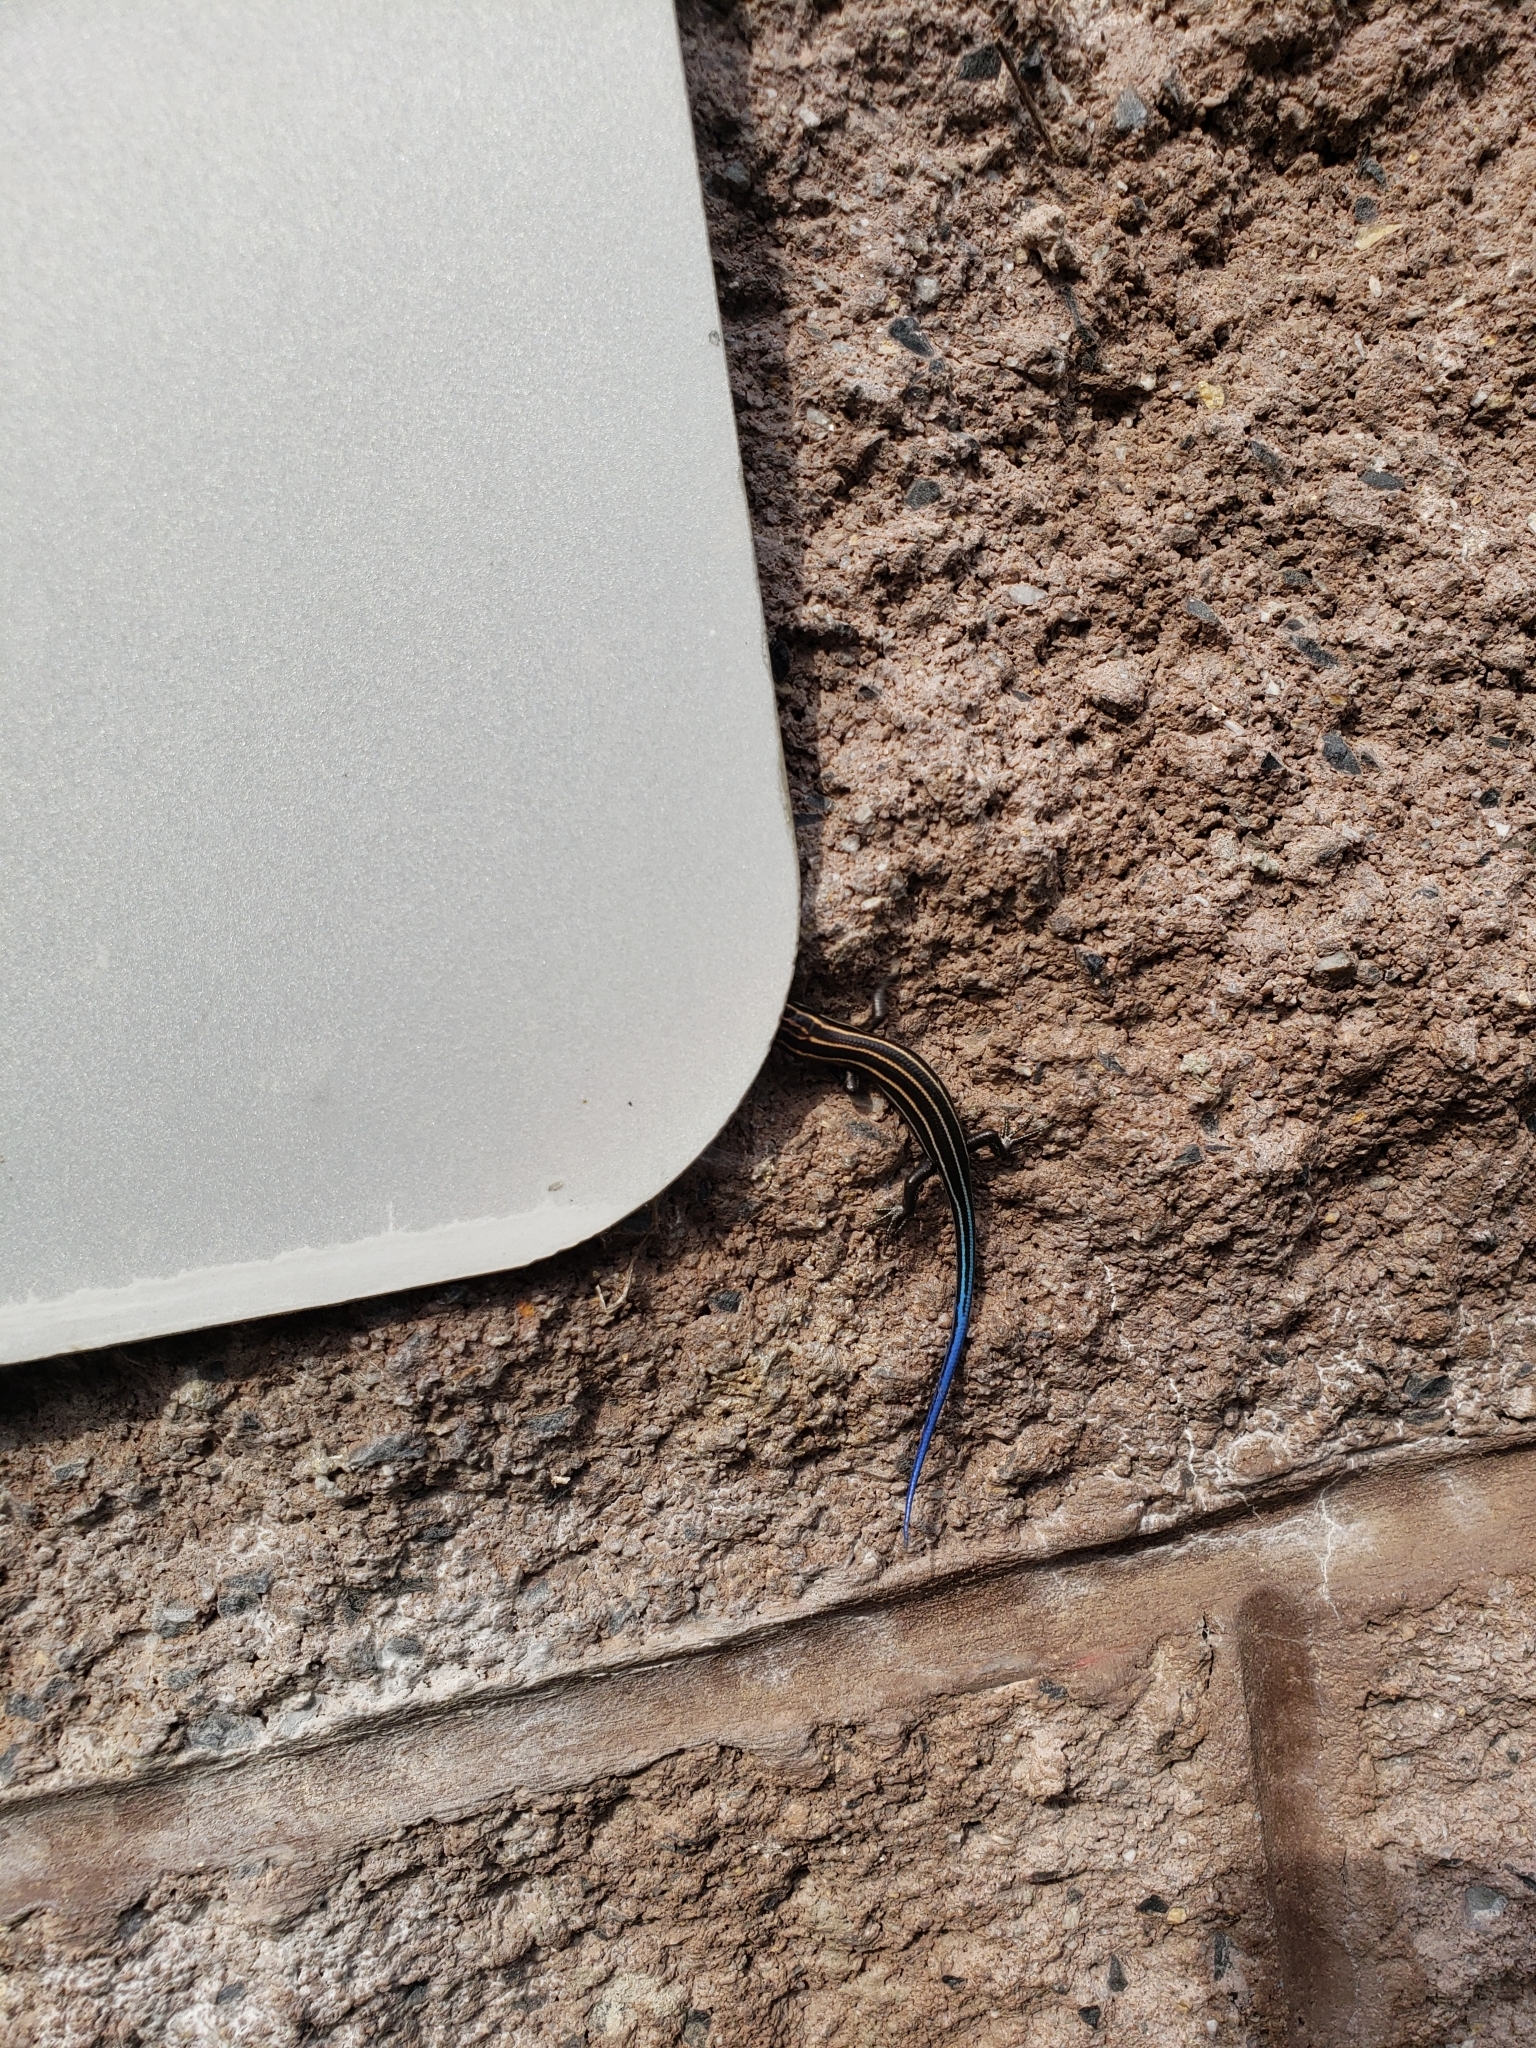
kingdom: Animalia
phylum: Chordata
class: Squamata
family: Scincidae
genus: Plestiodon
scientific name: Plestiodon fasciatus
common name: Five-lined skink
